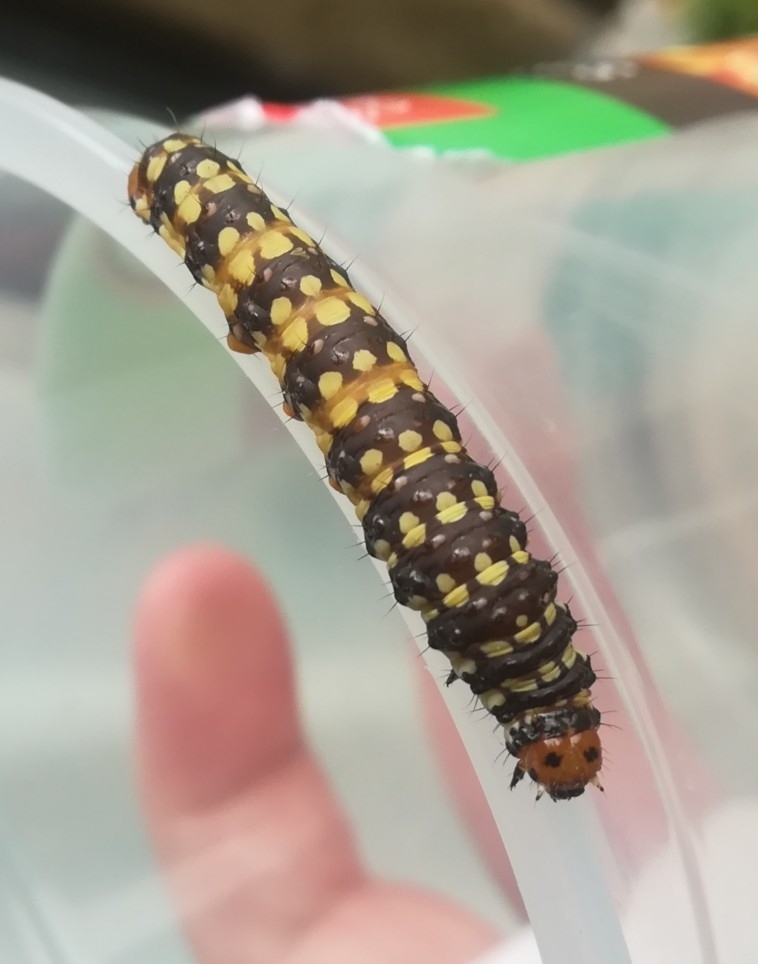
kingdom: Animalia
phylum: Arthropoda
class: Insecta
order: Lepidoptera
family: Noctuidae
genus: Brithys
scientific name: Brithys crini
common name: Kew arches
